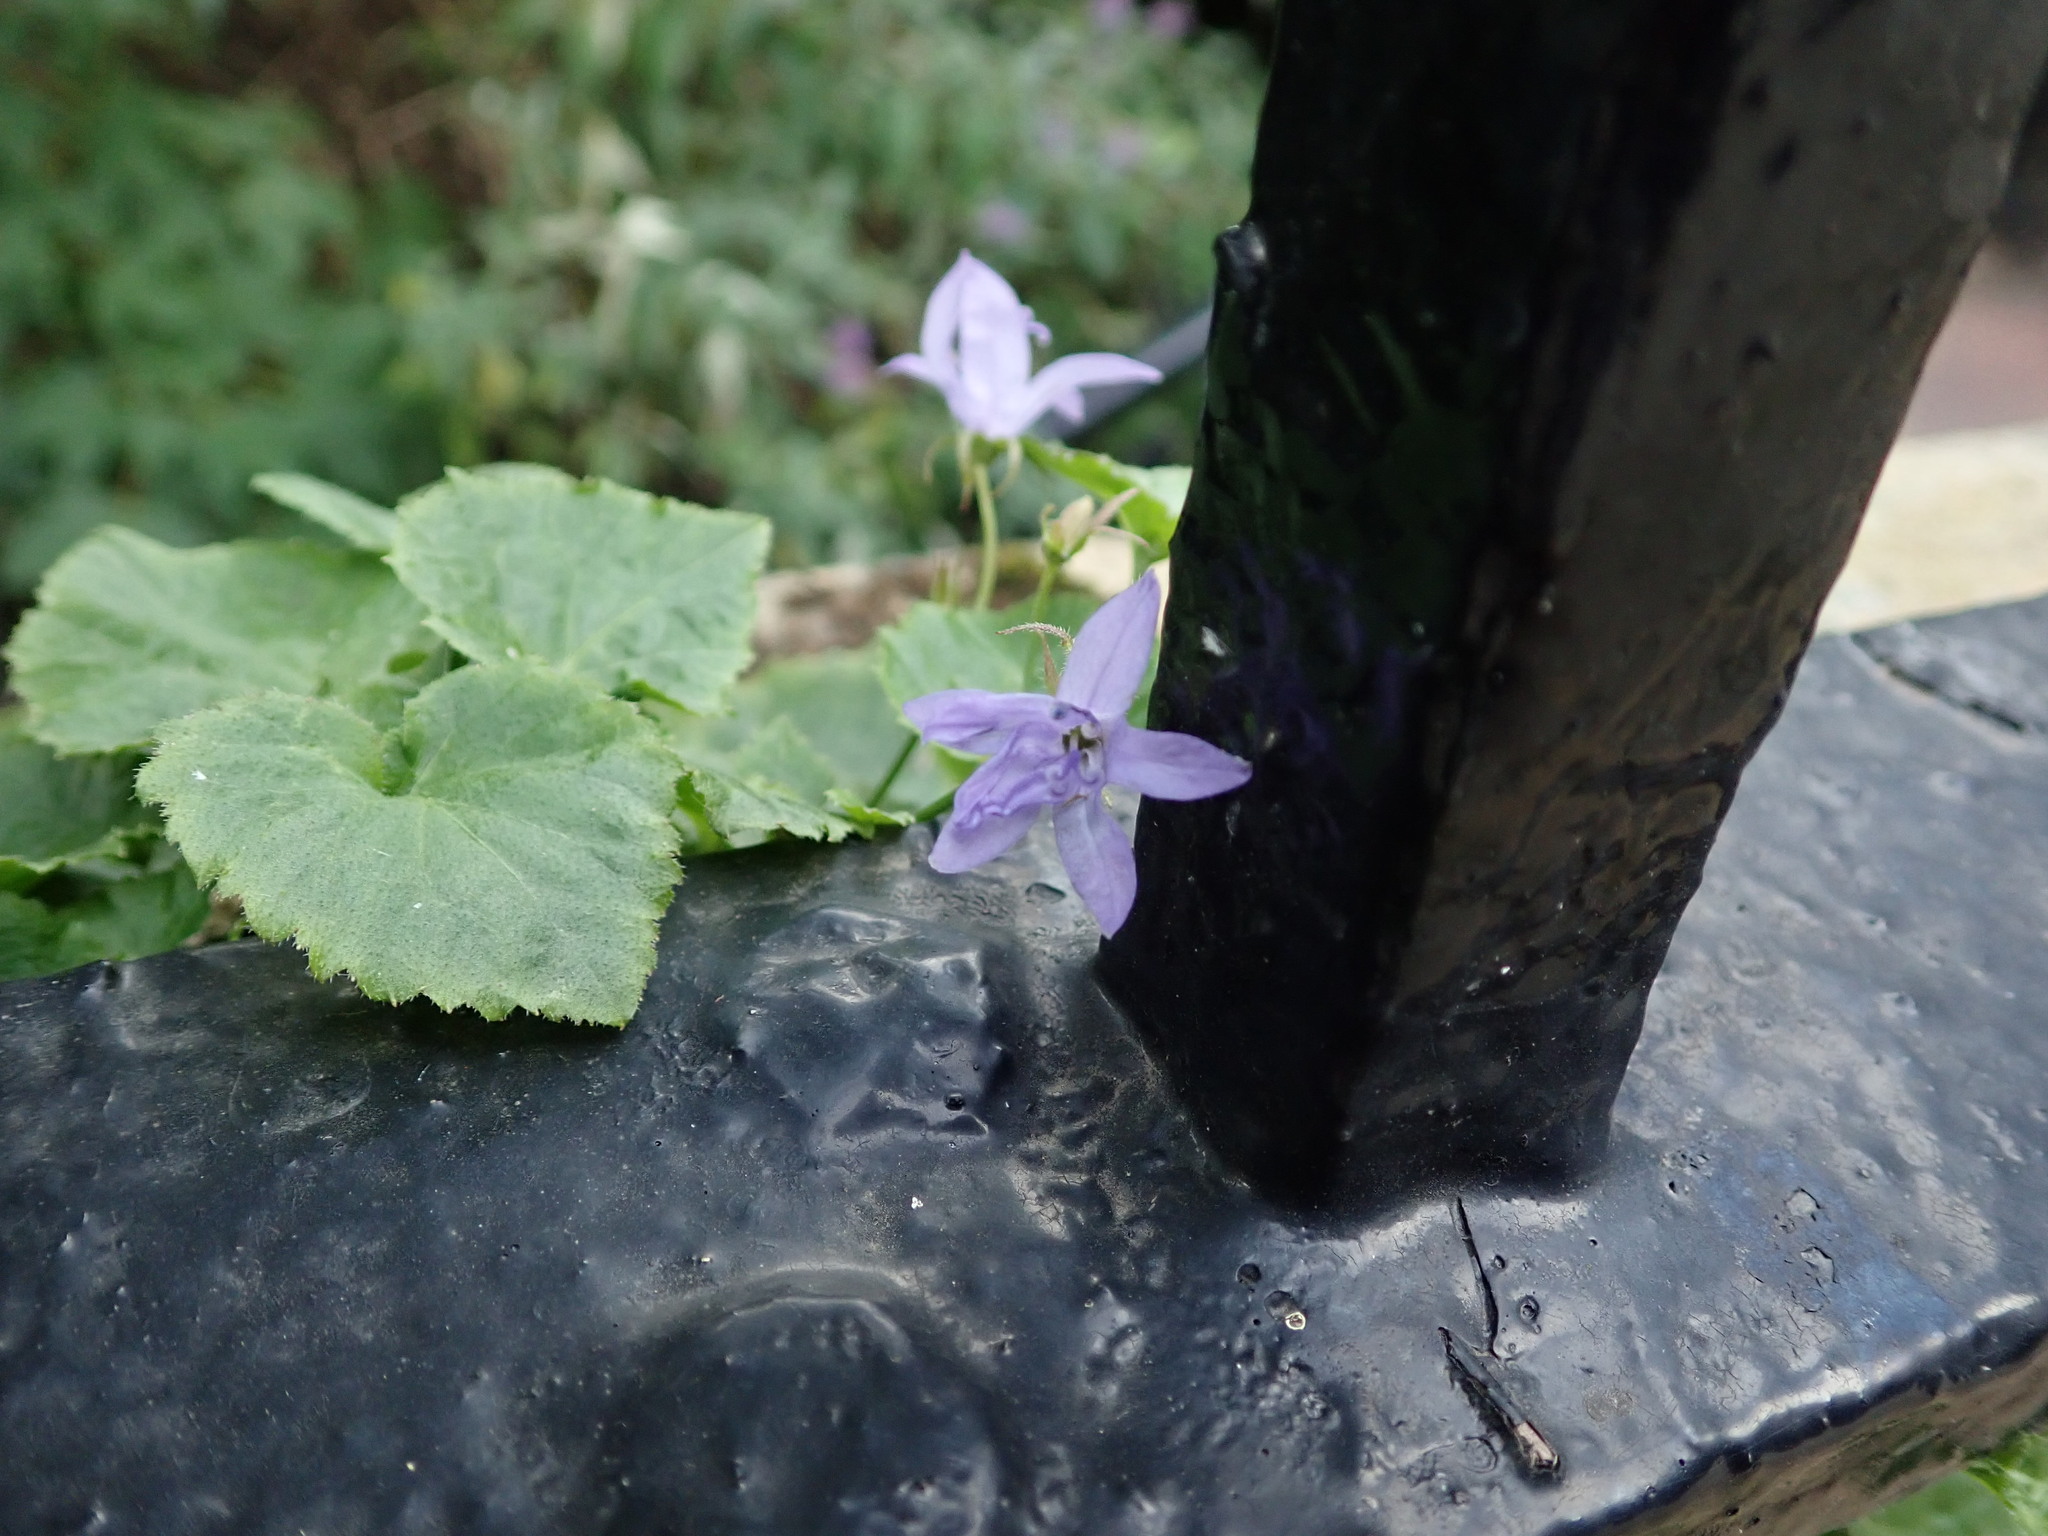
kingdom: Plantae
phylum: Tracheophyta
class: Magnoliopsida
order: Asterales
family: Campanulaceae
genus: Campanula
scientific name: Campanula poscharskyana
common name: Trailing bellflower
